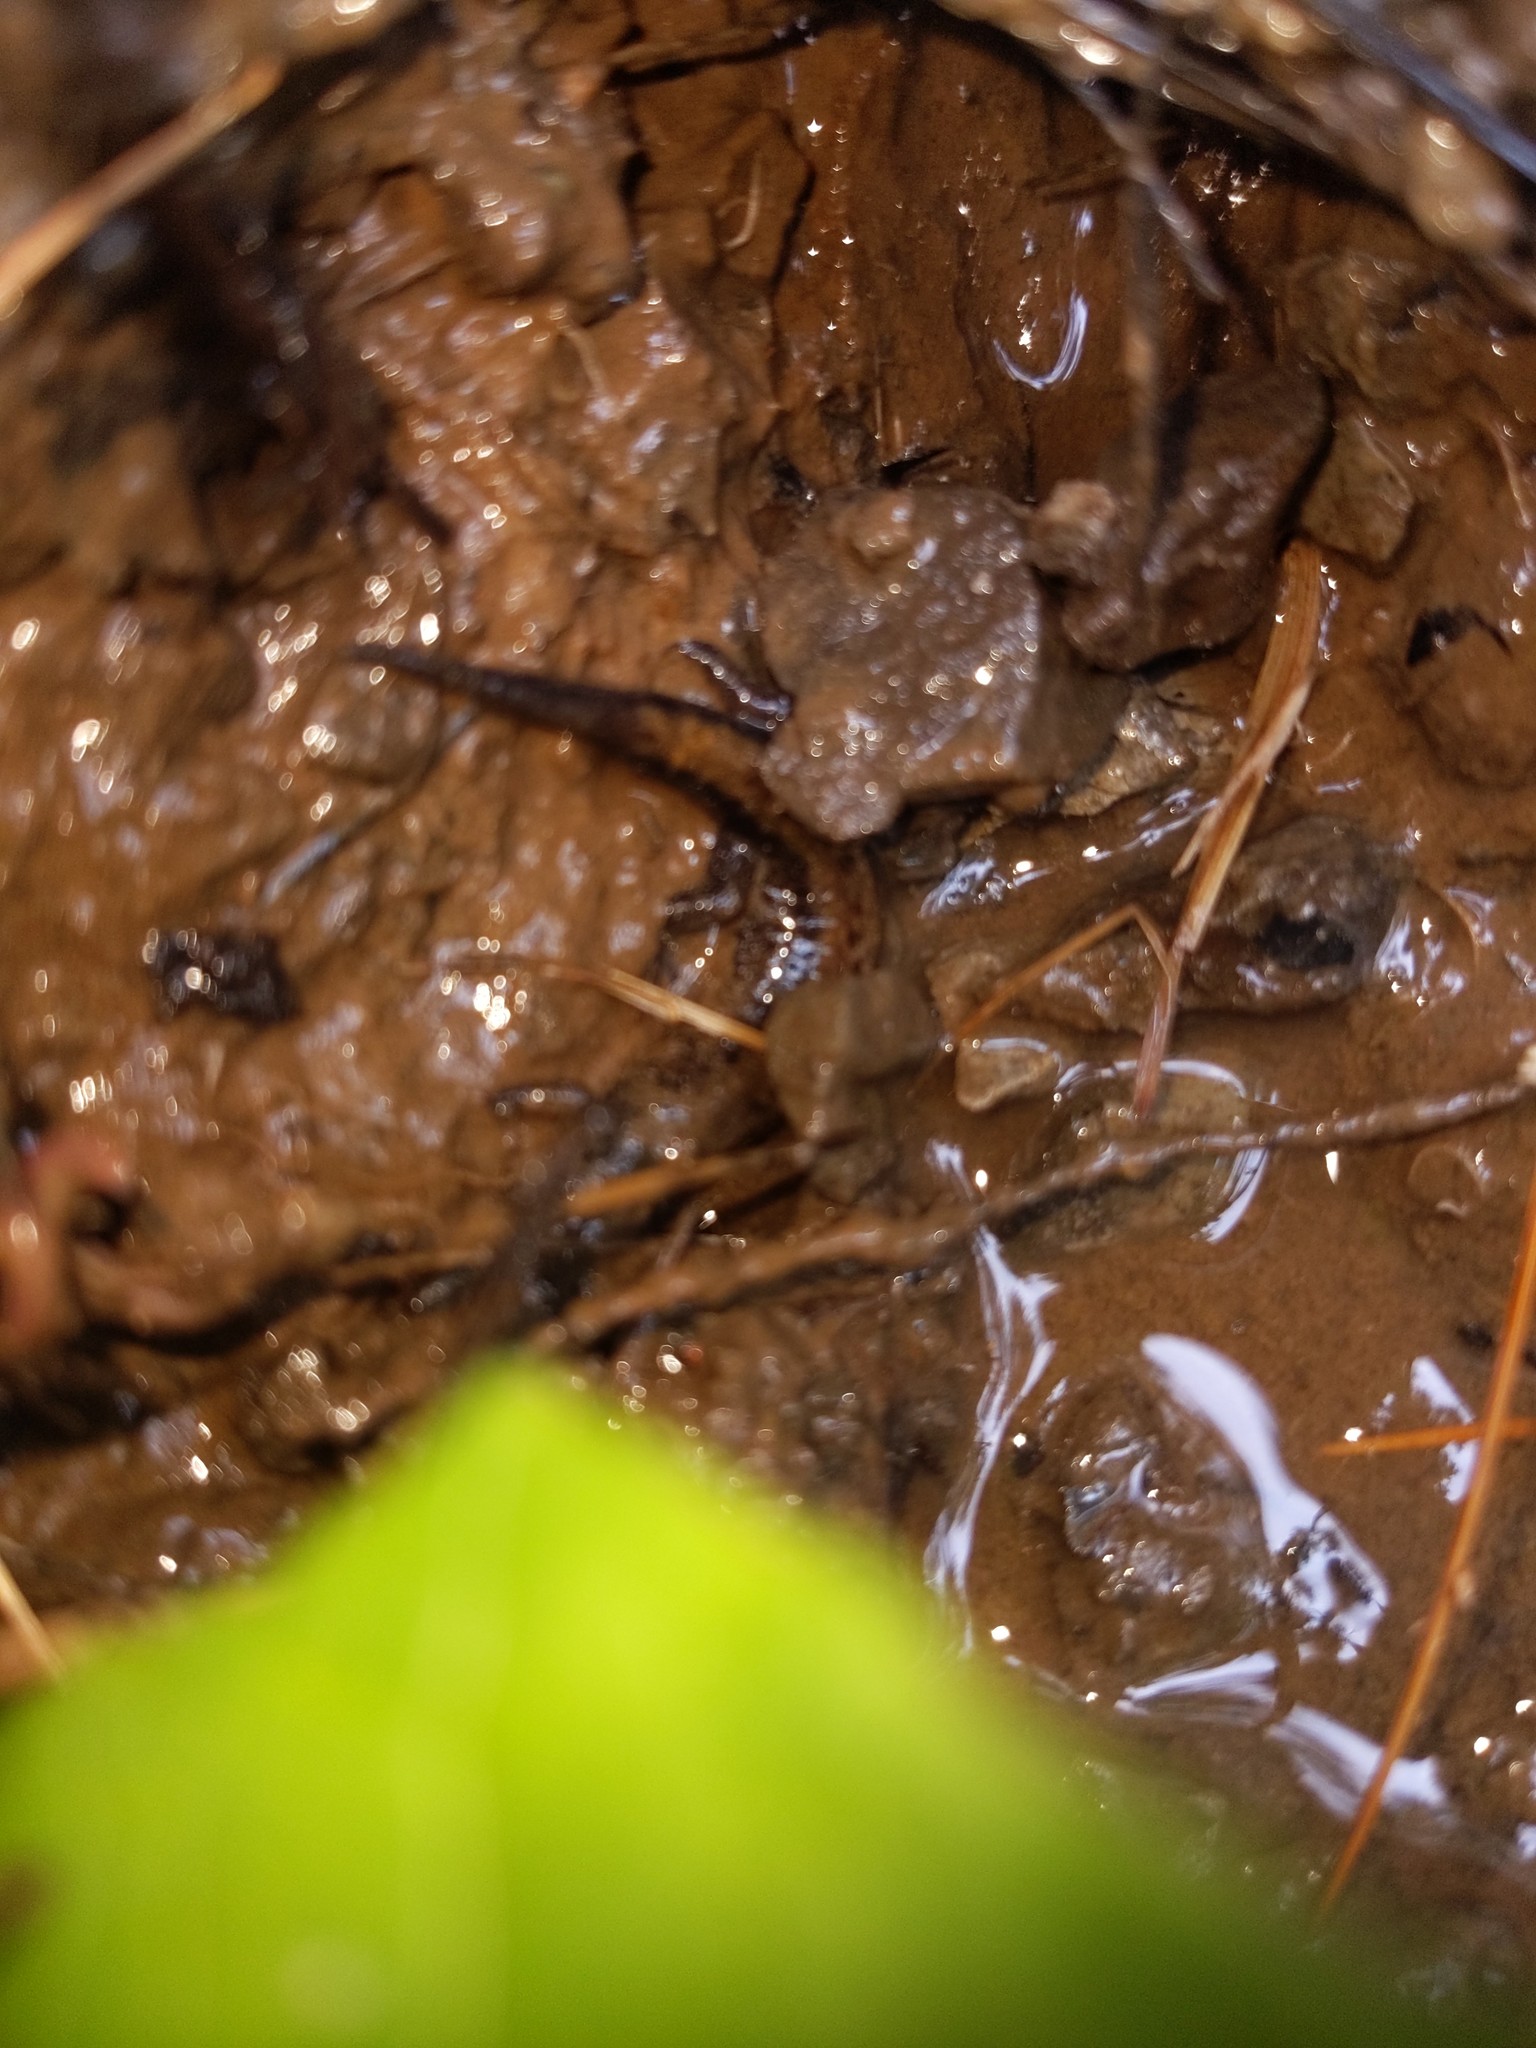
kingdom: Animalia
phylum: Chordata
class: Amphibia
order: Caudata
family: Plethodontidae
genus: Desmognathus
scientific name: Desmognathus ochrophaeus
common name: Allegheny mountain dusky salamander
